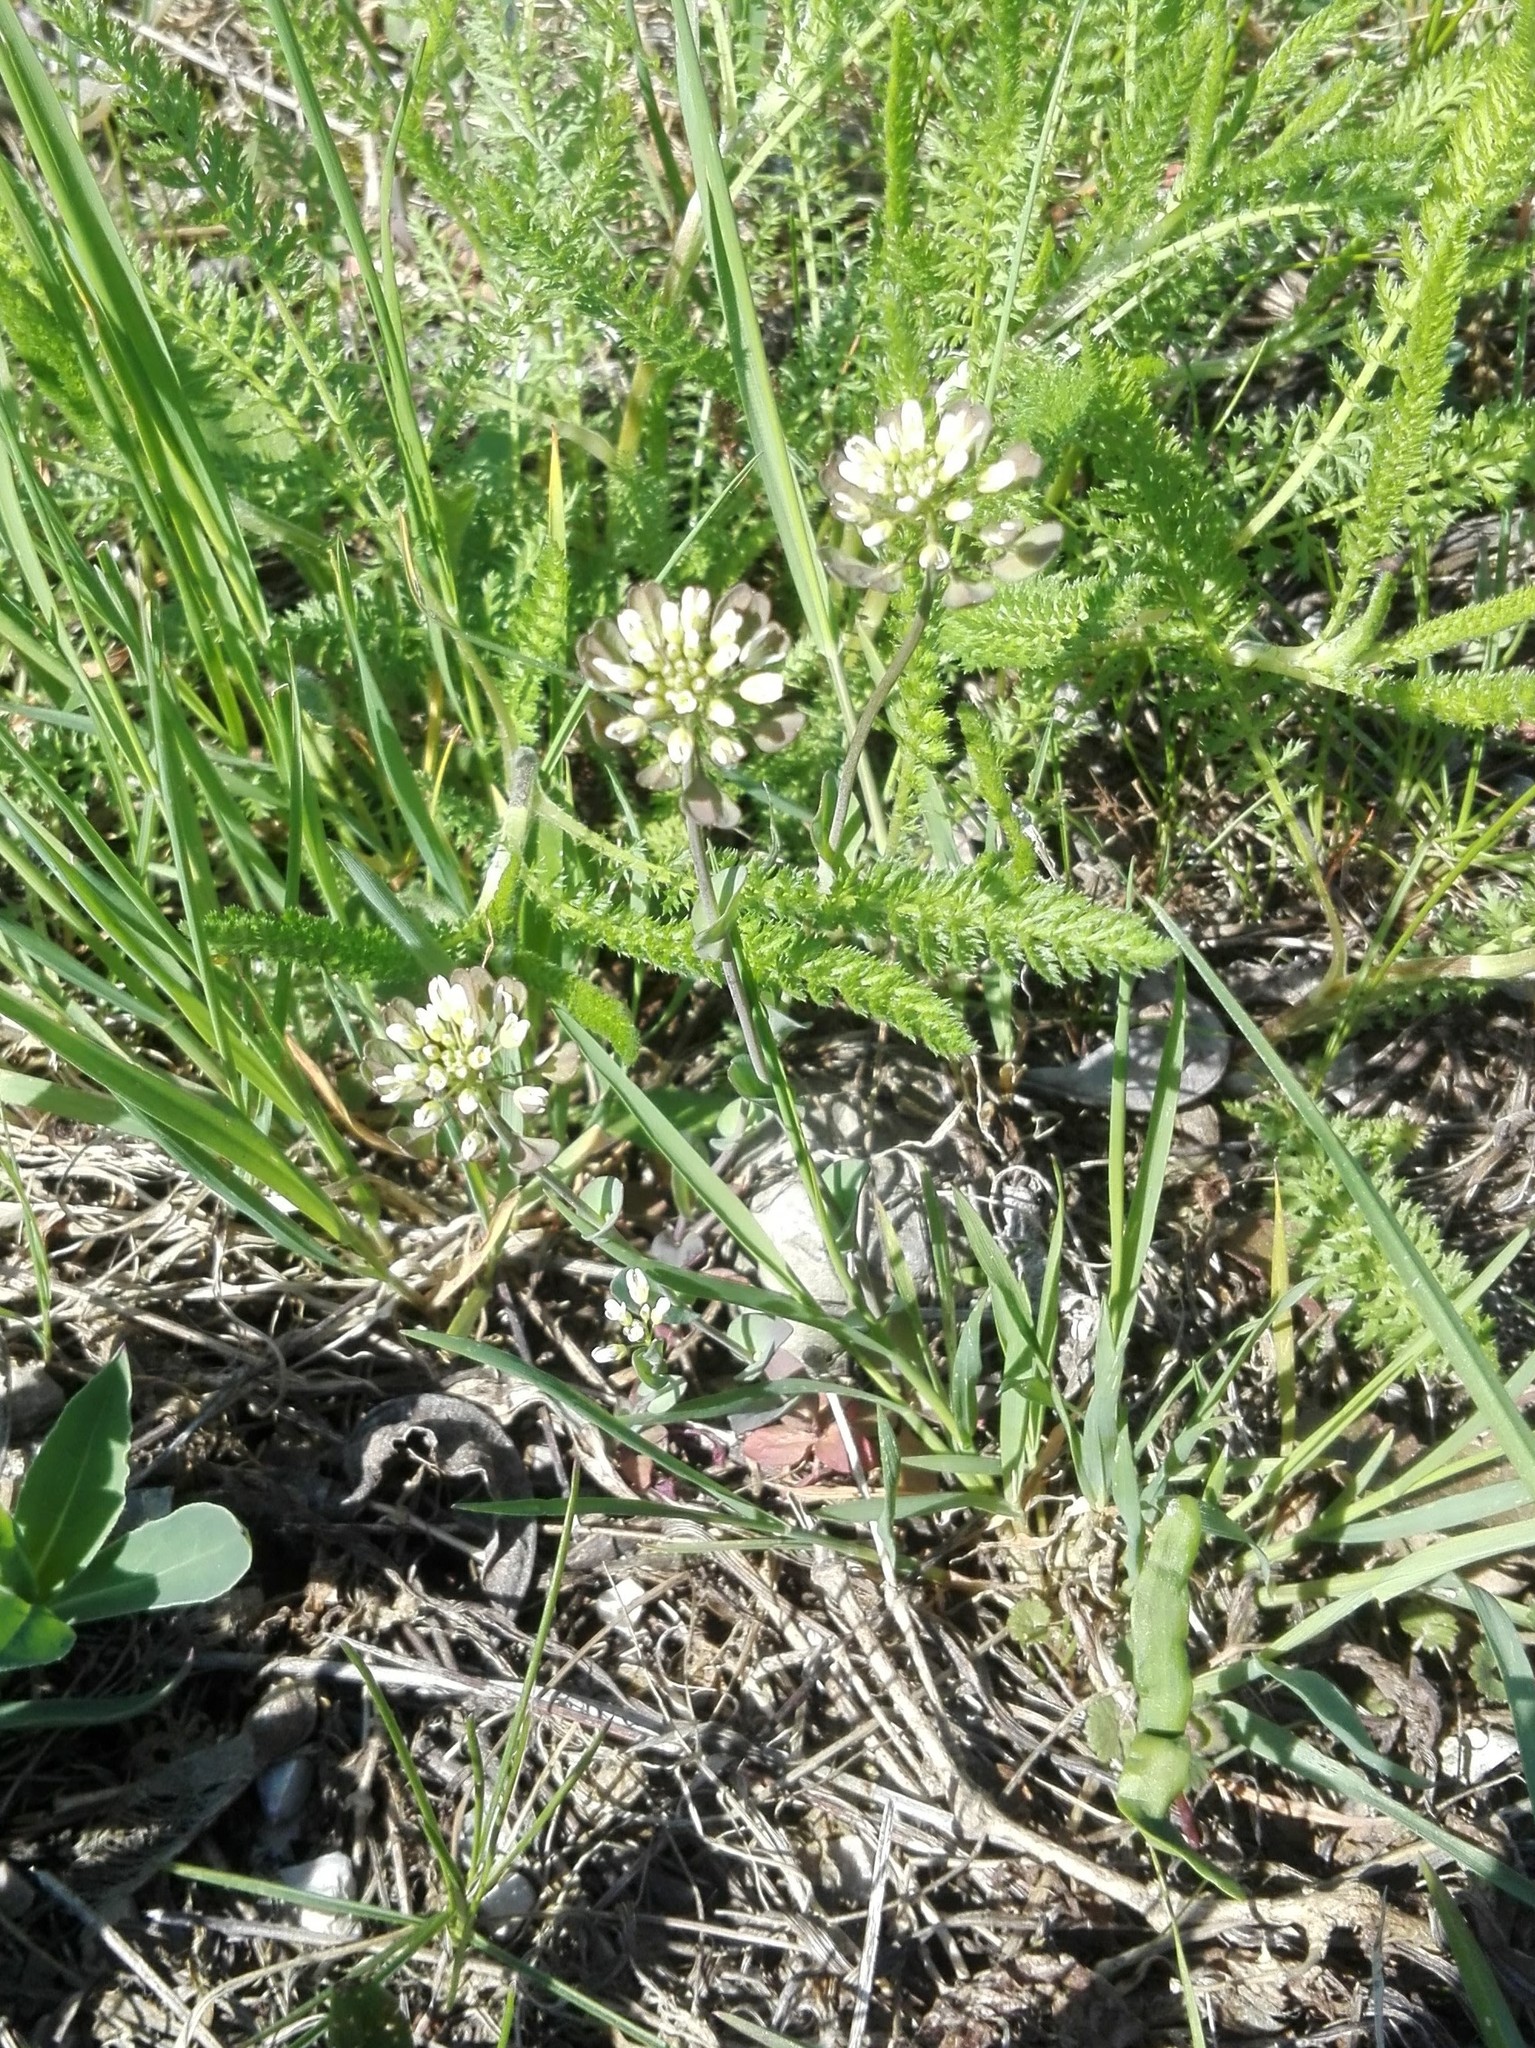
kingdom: Plantae
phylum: Tracheophyta
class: Magnoliopsida
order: Brassicales
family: Brassicaceae
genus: Noccaea
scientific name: Noccaea perfoliata
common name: Perfoliate pennycress
